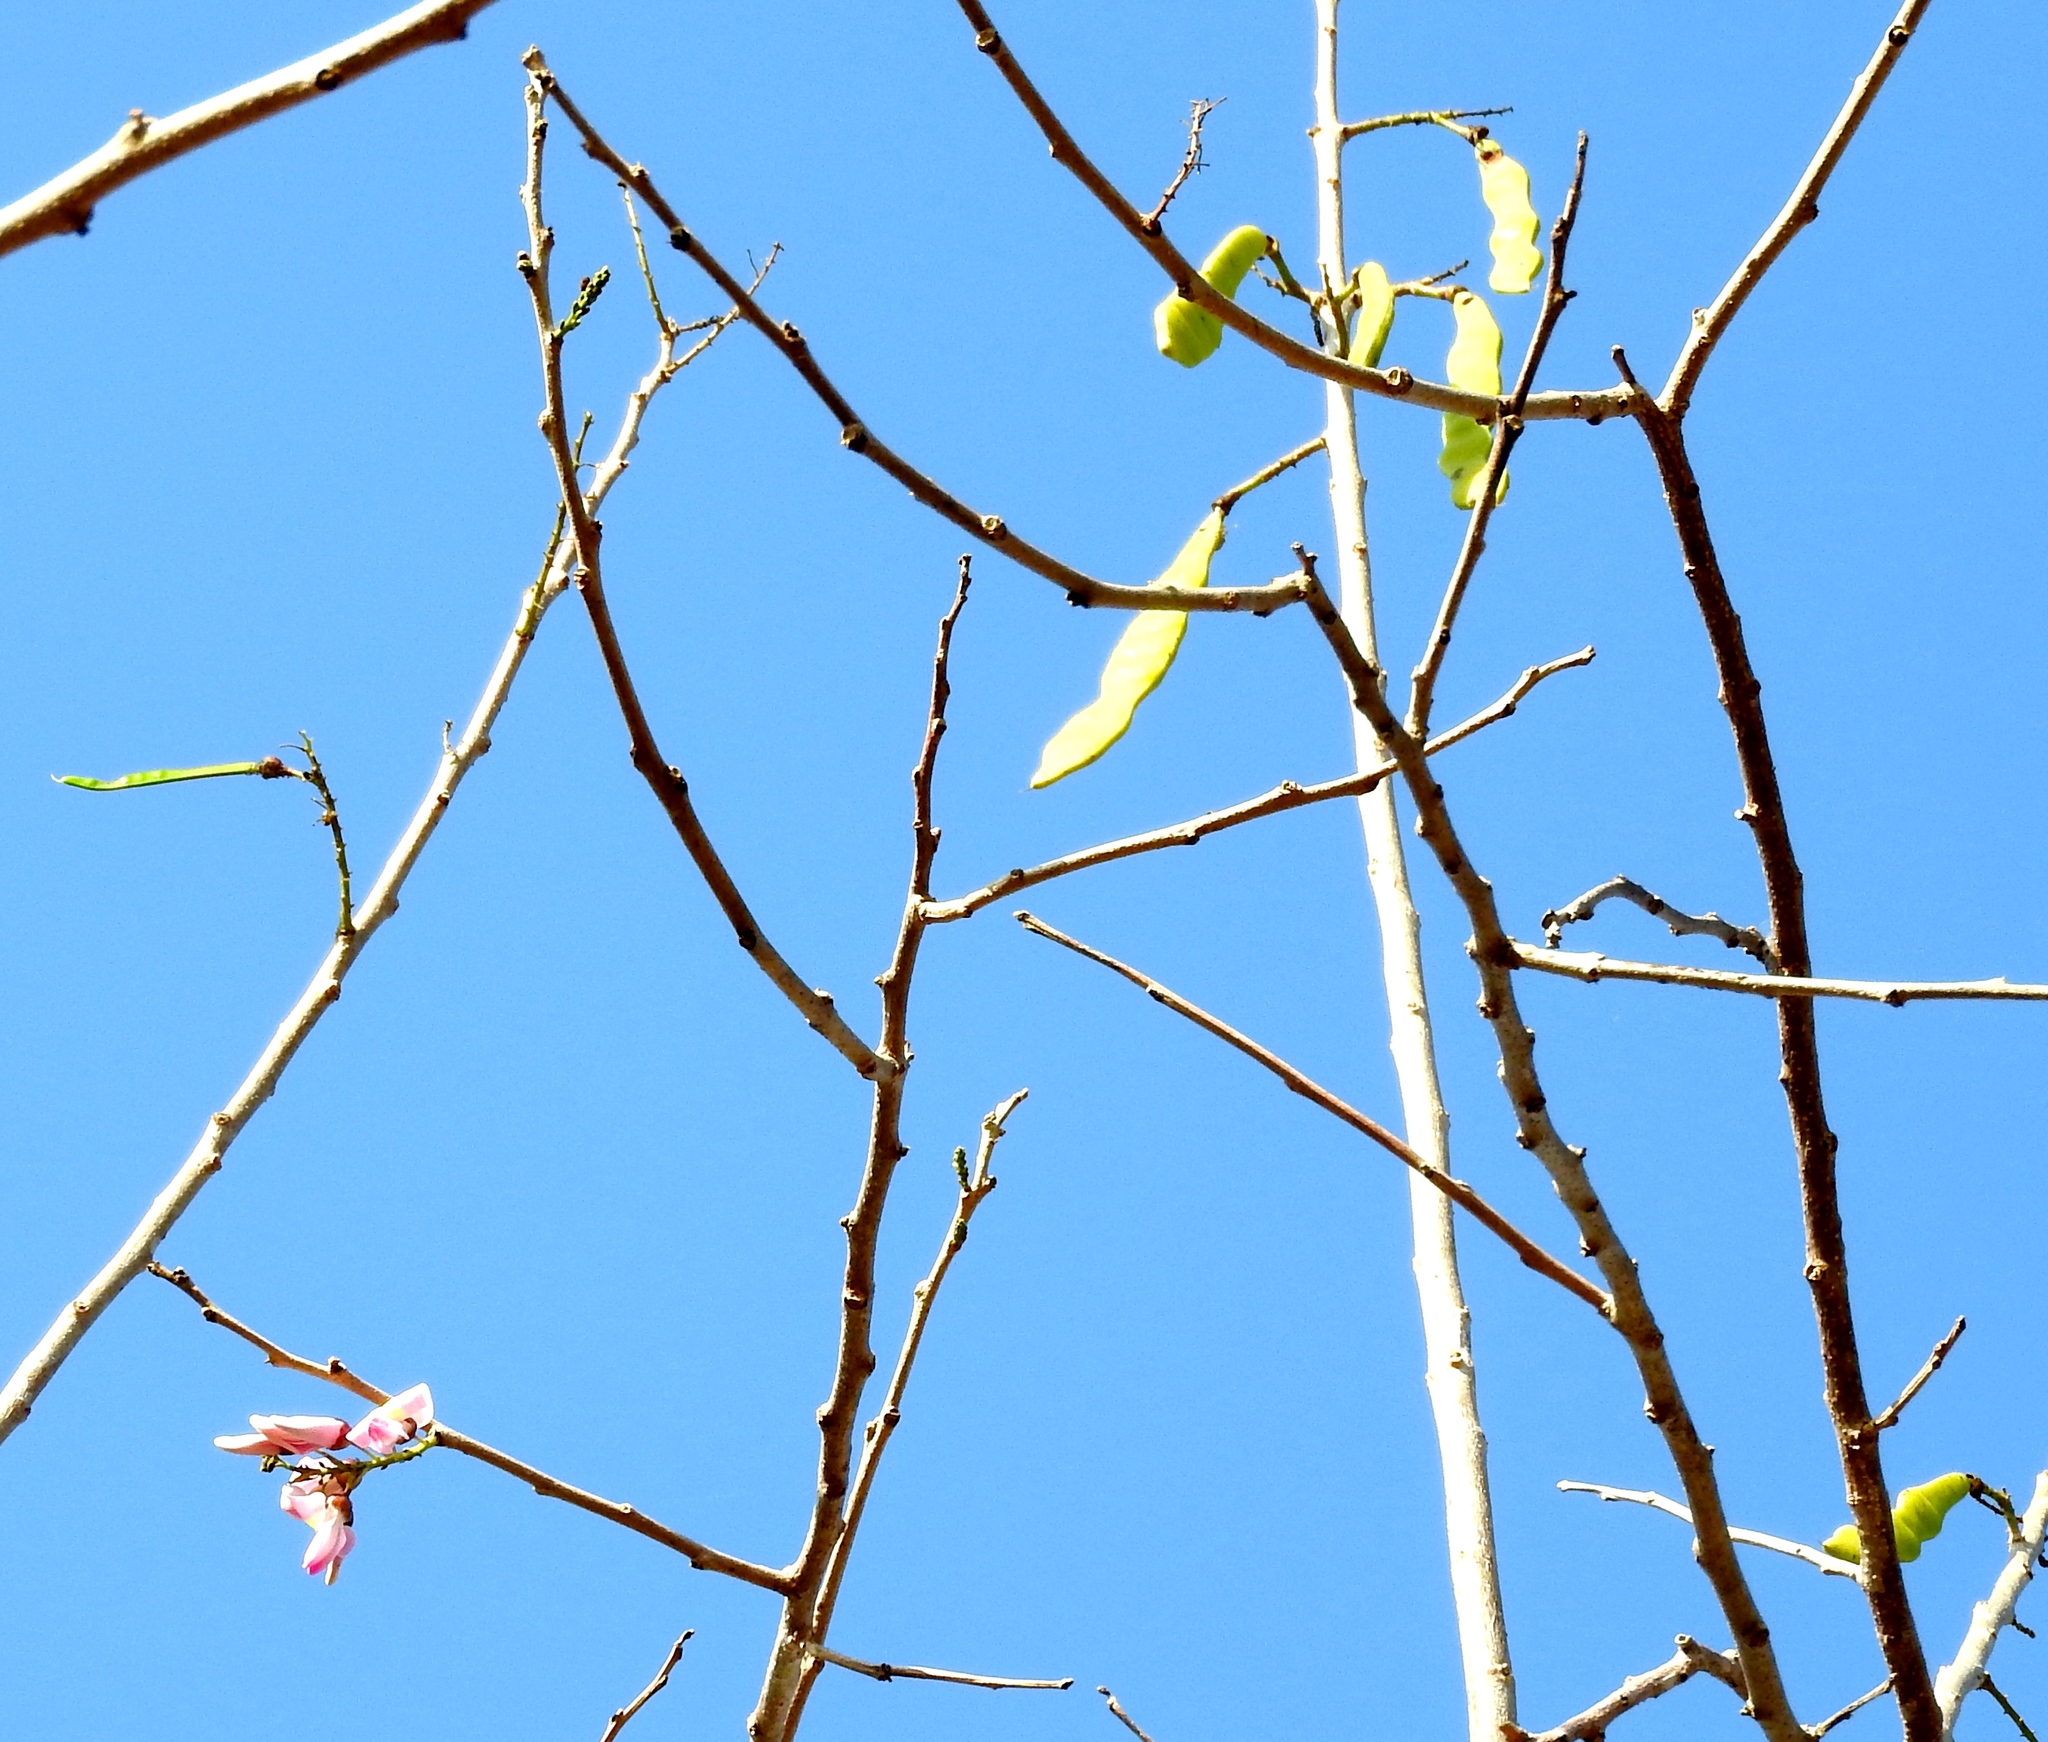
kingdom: Plantae
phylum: Tracheophyta
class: Magnoliopsida
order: Fabales
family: Fabaceae
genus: Gliricidia
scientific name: Gliricidia sepium
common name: Quickstick
